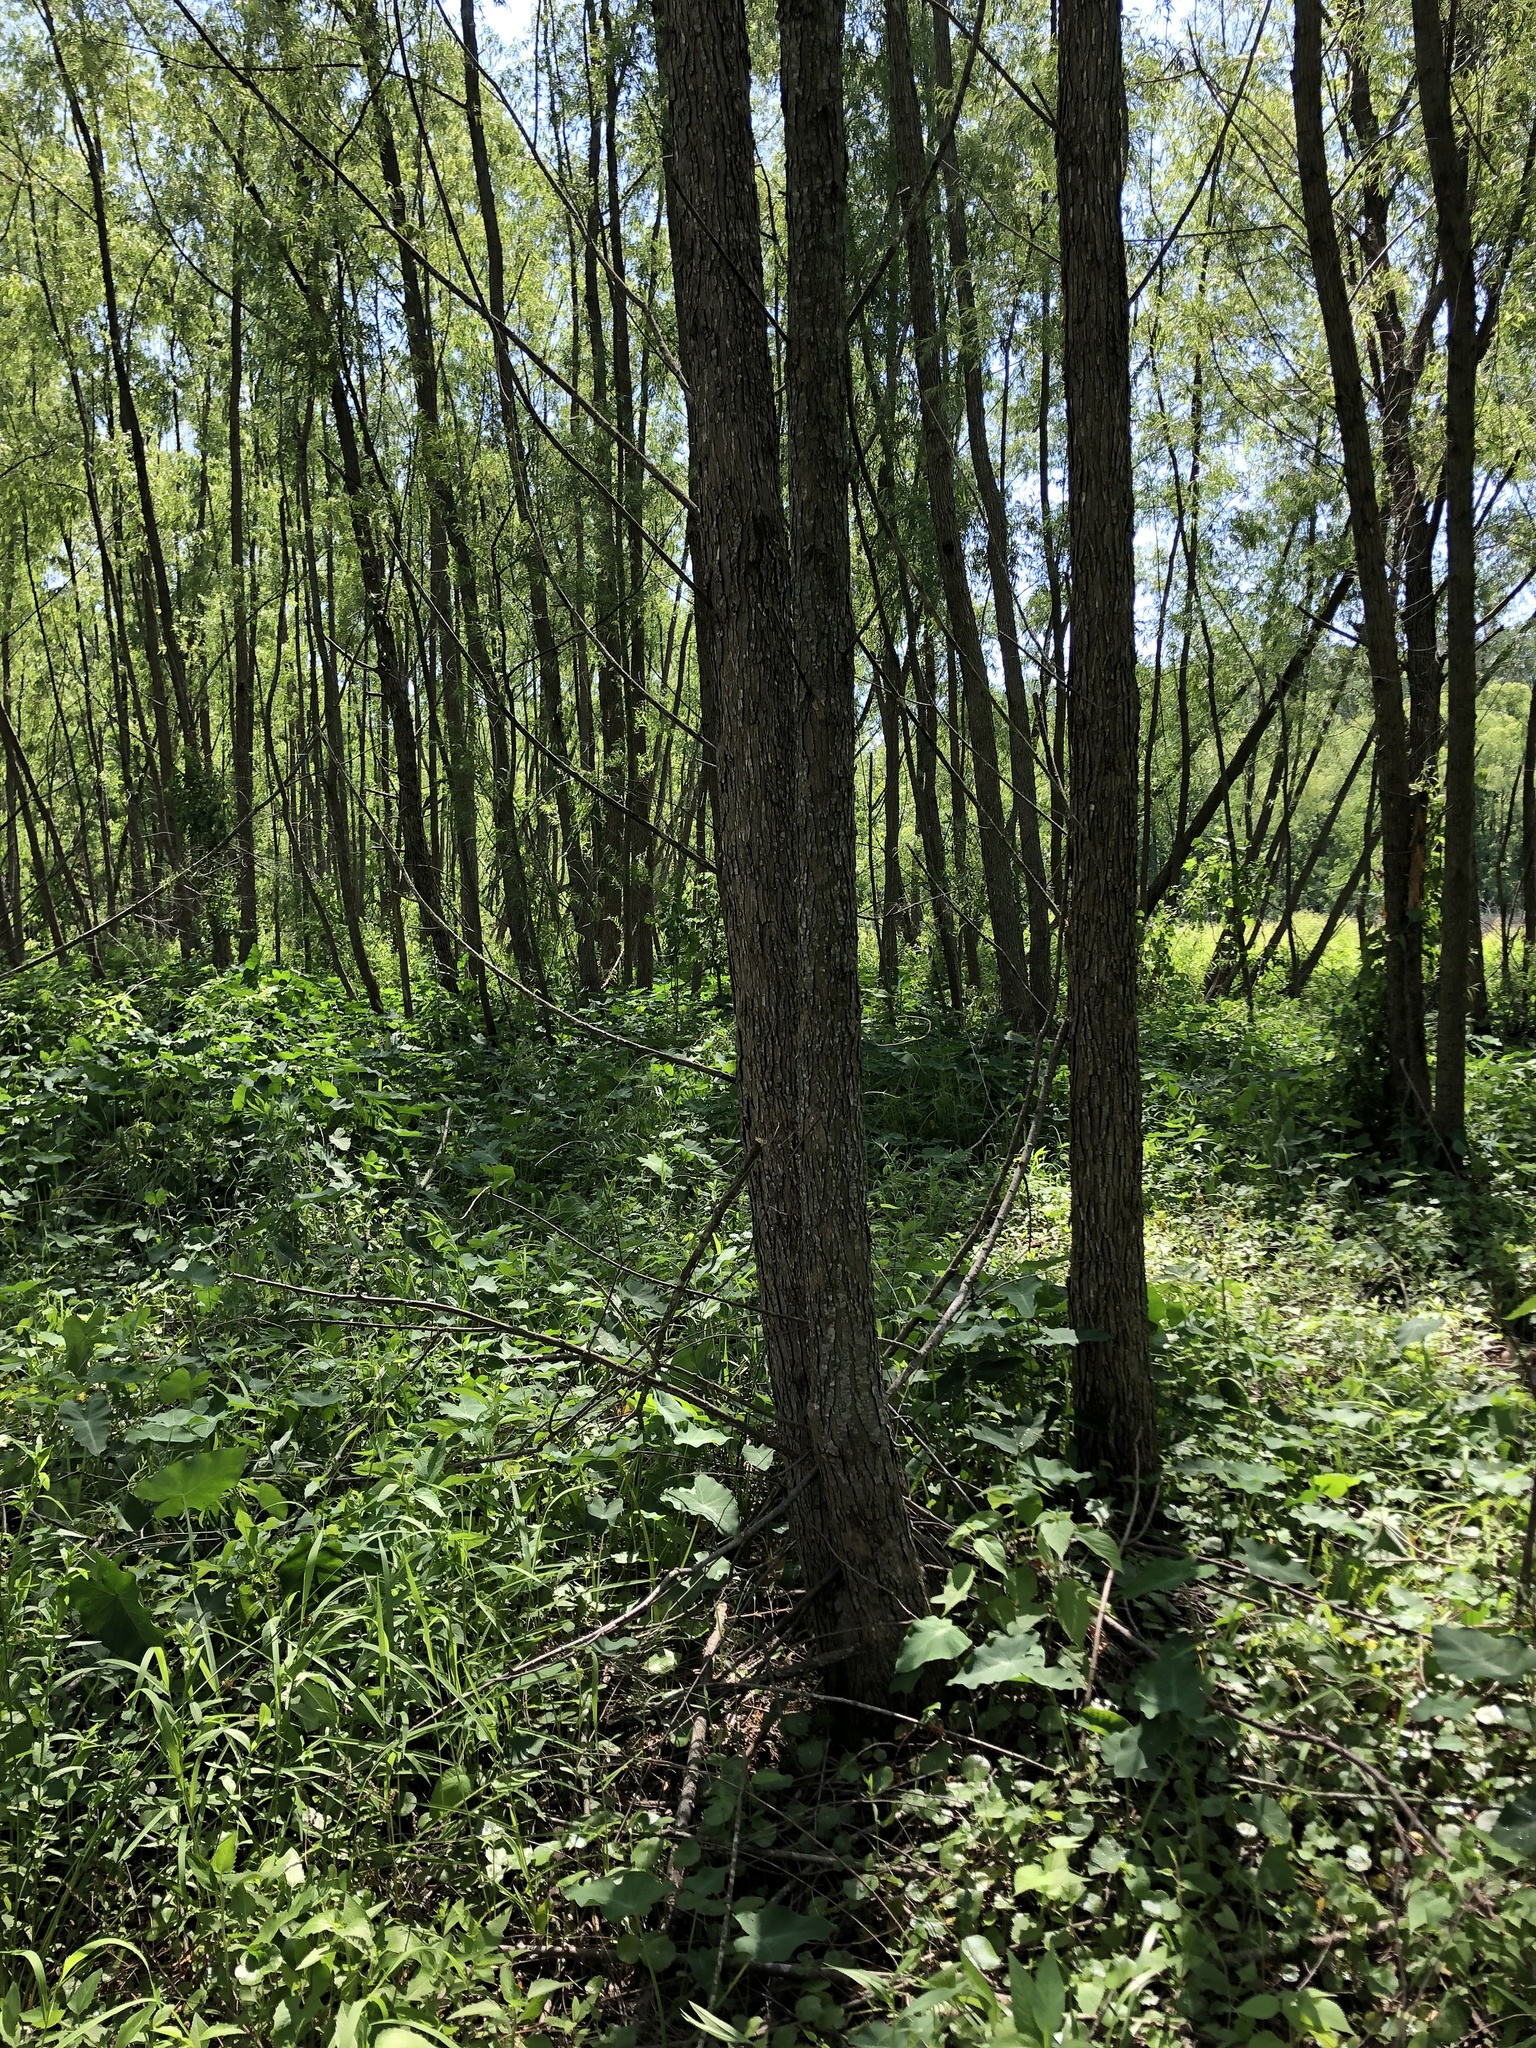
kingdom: Plantae
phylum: Tracheophyta
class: Magnoliopsida
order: Apiales
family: Araliaceae
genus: Hydrocotyle
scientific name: Hydrocotyle verticillata
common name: Whorled marshpennywort
